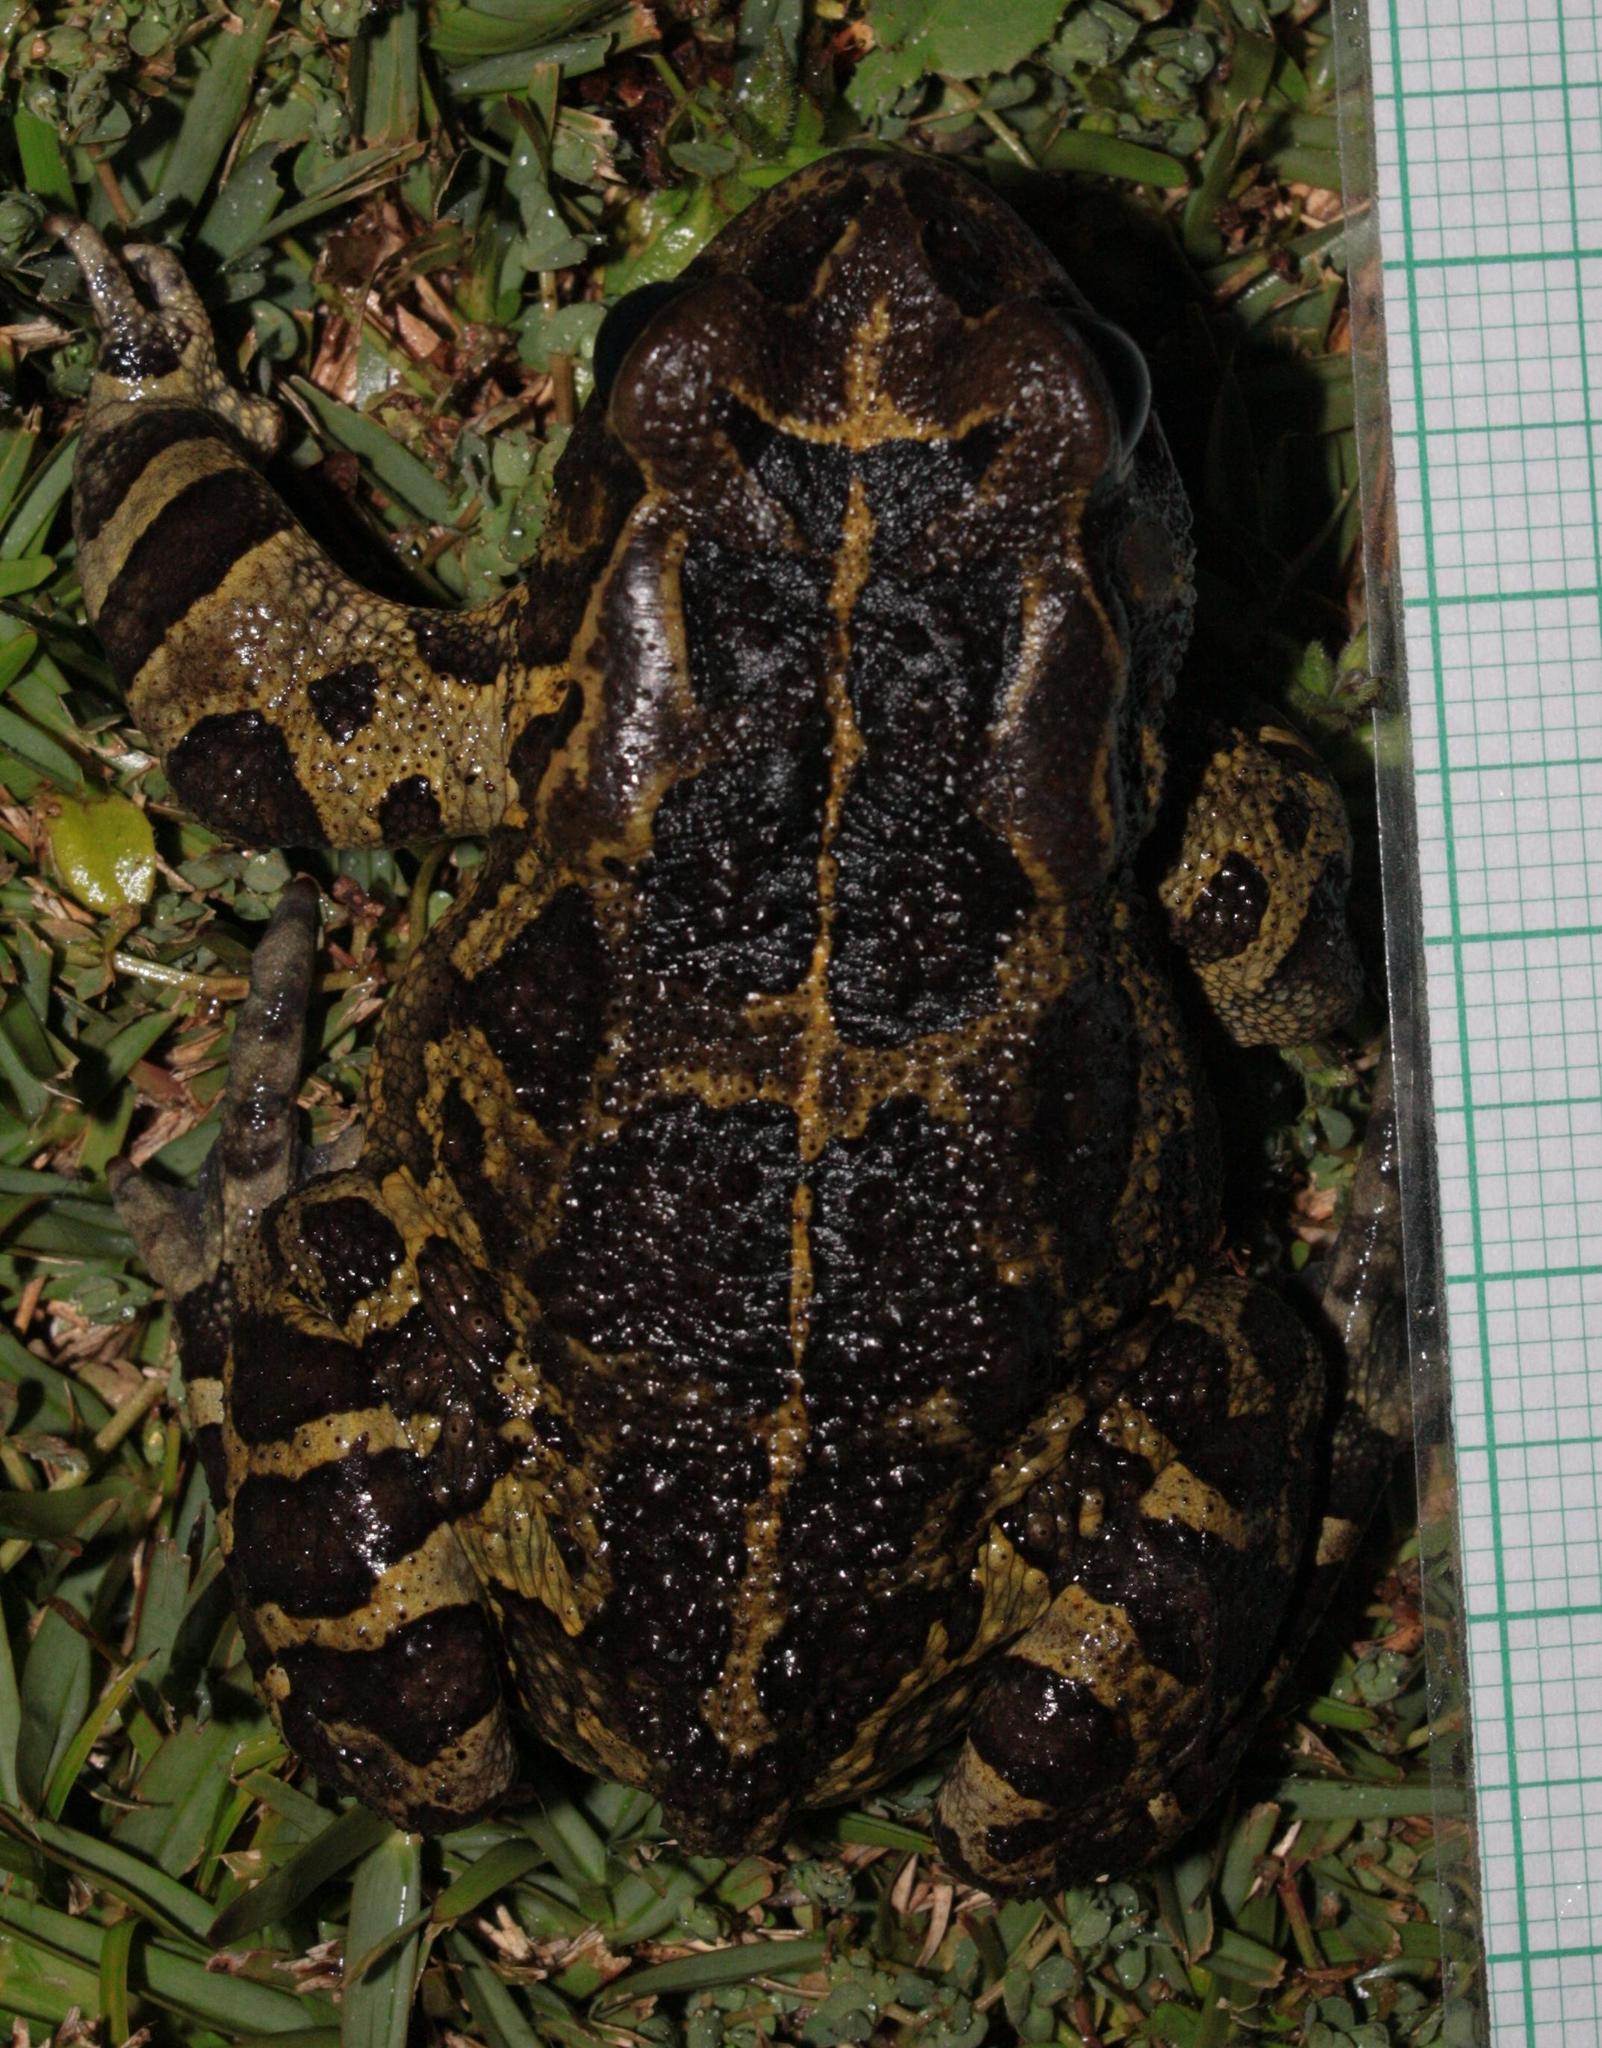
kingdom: Animalia
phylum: Chordata
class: Amphibia
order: Anura
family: Bufonidae
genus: Sclerophrys
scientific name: Sclerophrys pantherina
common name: Panther toad
